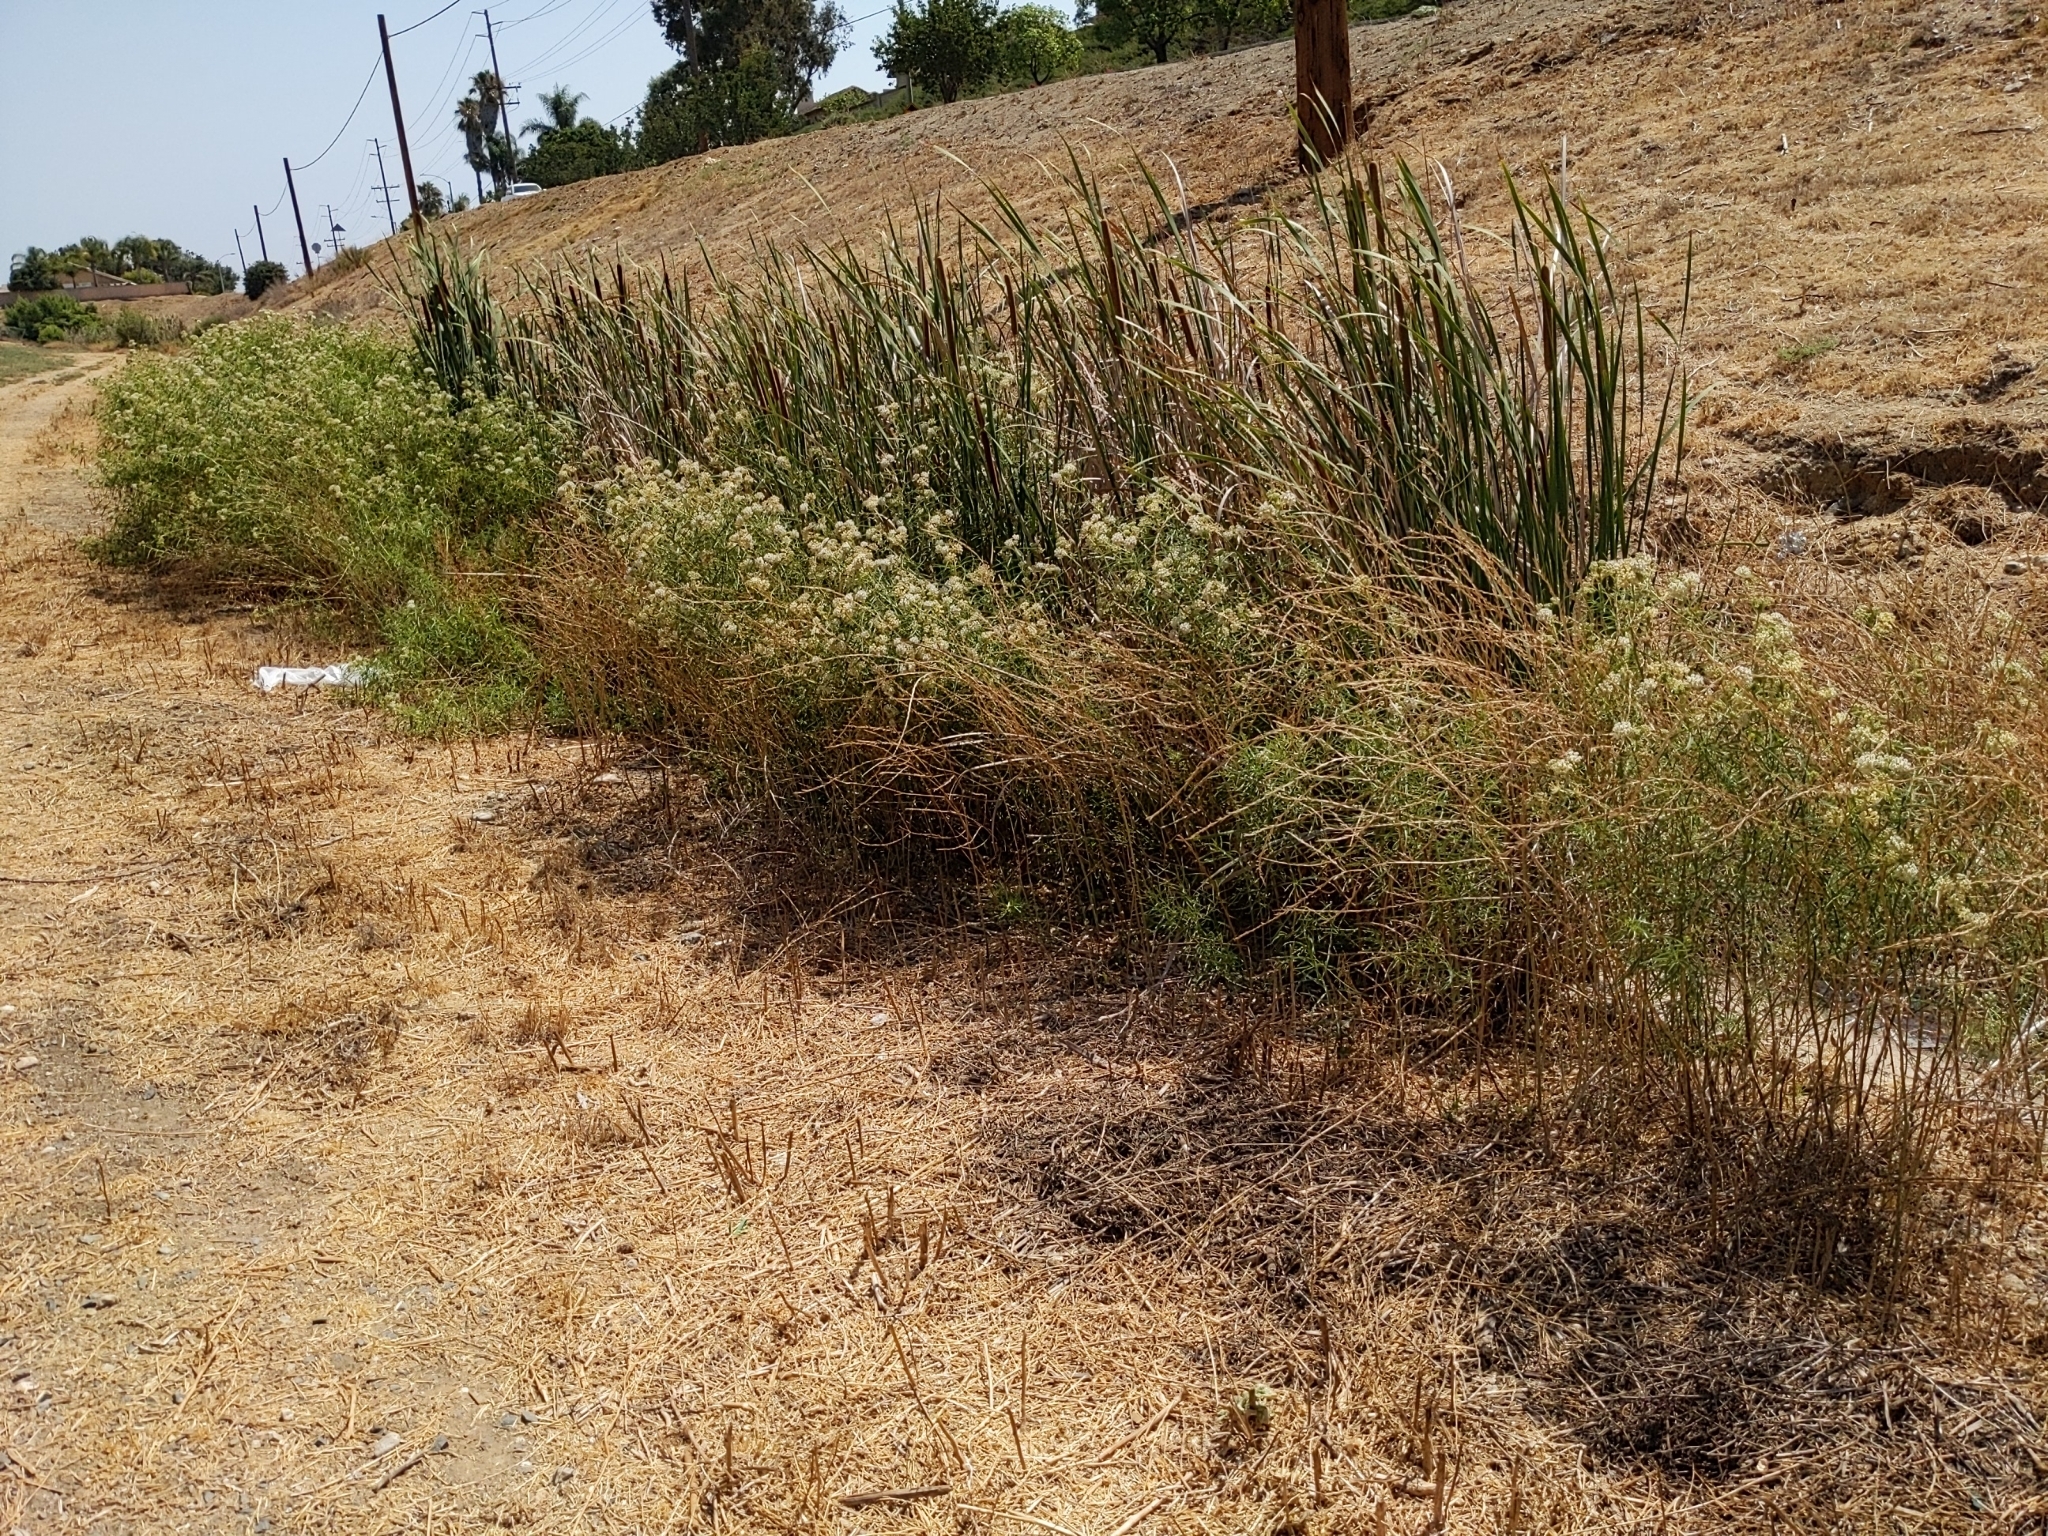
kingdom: Plantae
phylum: Tracheophyta
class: Magnoliopsida
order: Gentianales
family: Apocynaceae
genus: Asclepias
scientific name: Asclepias fascicularis
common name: Mexican milkweed
